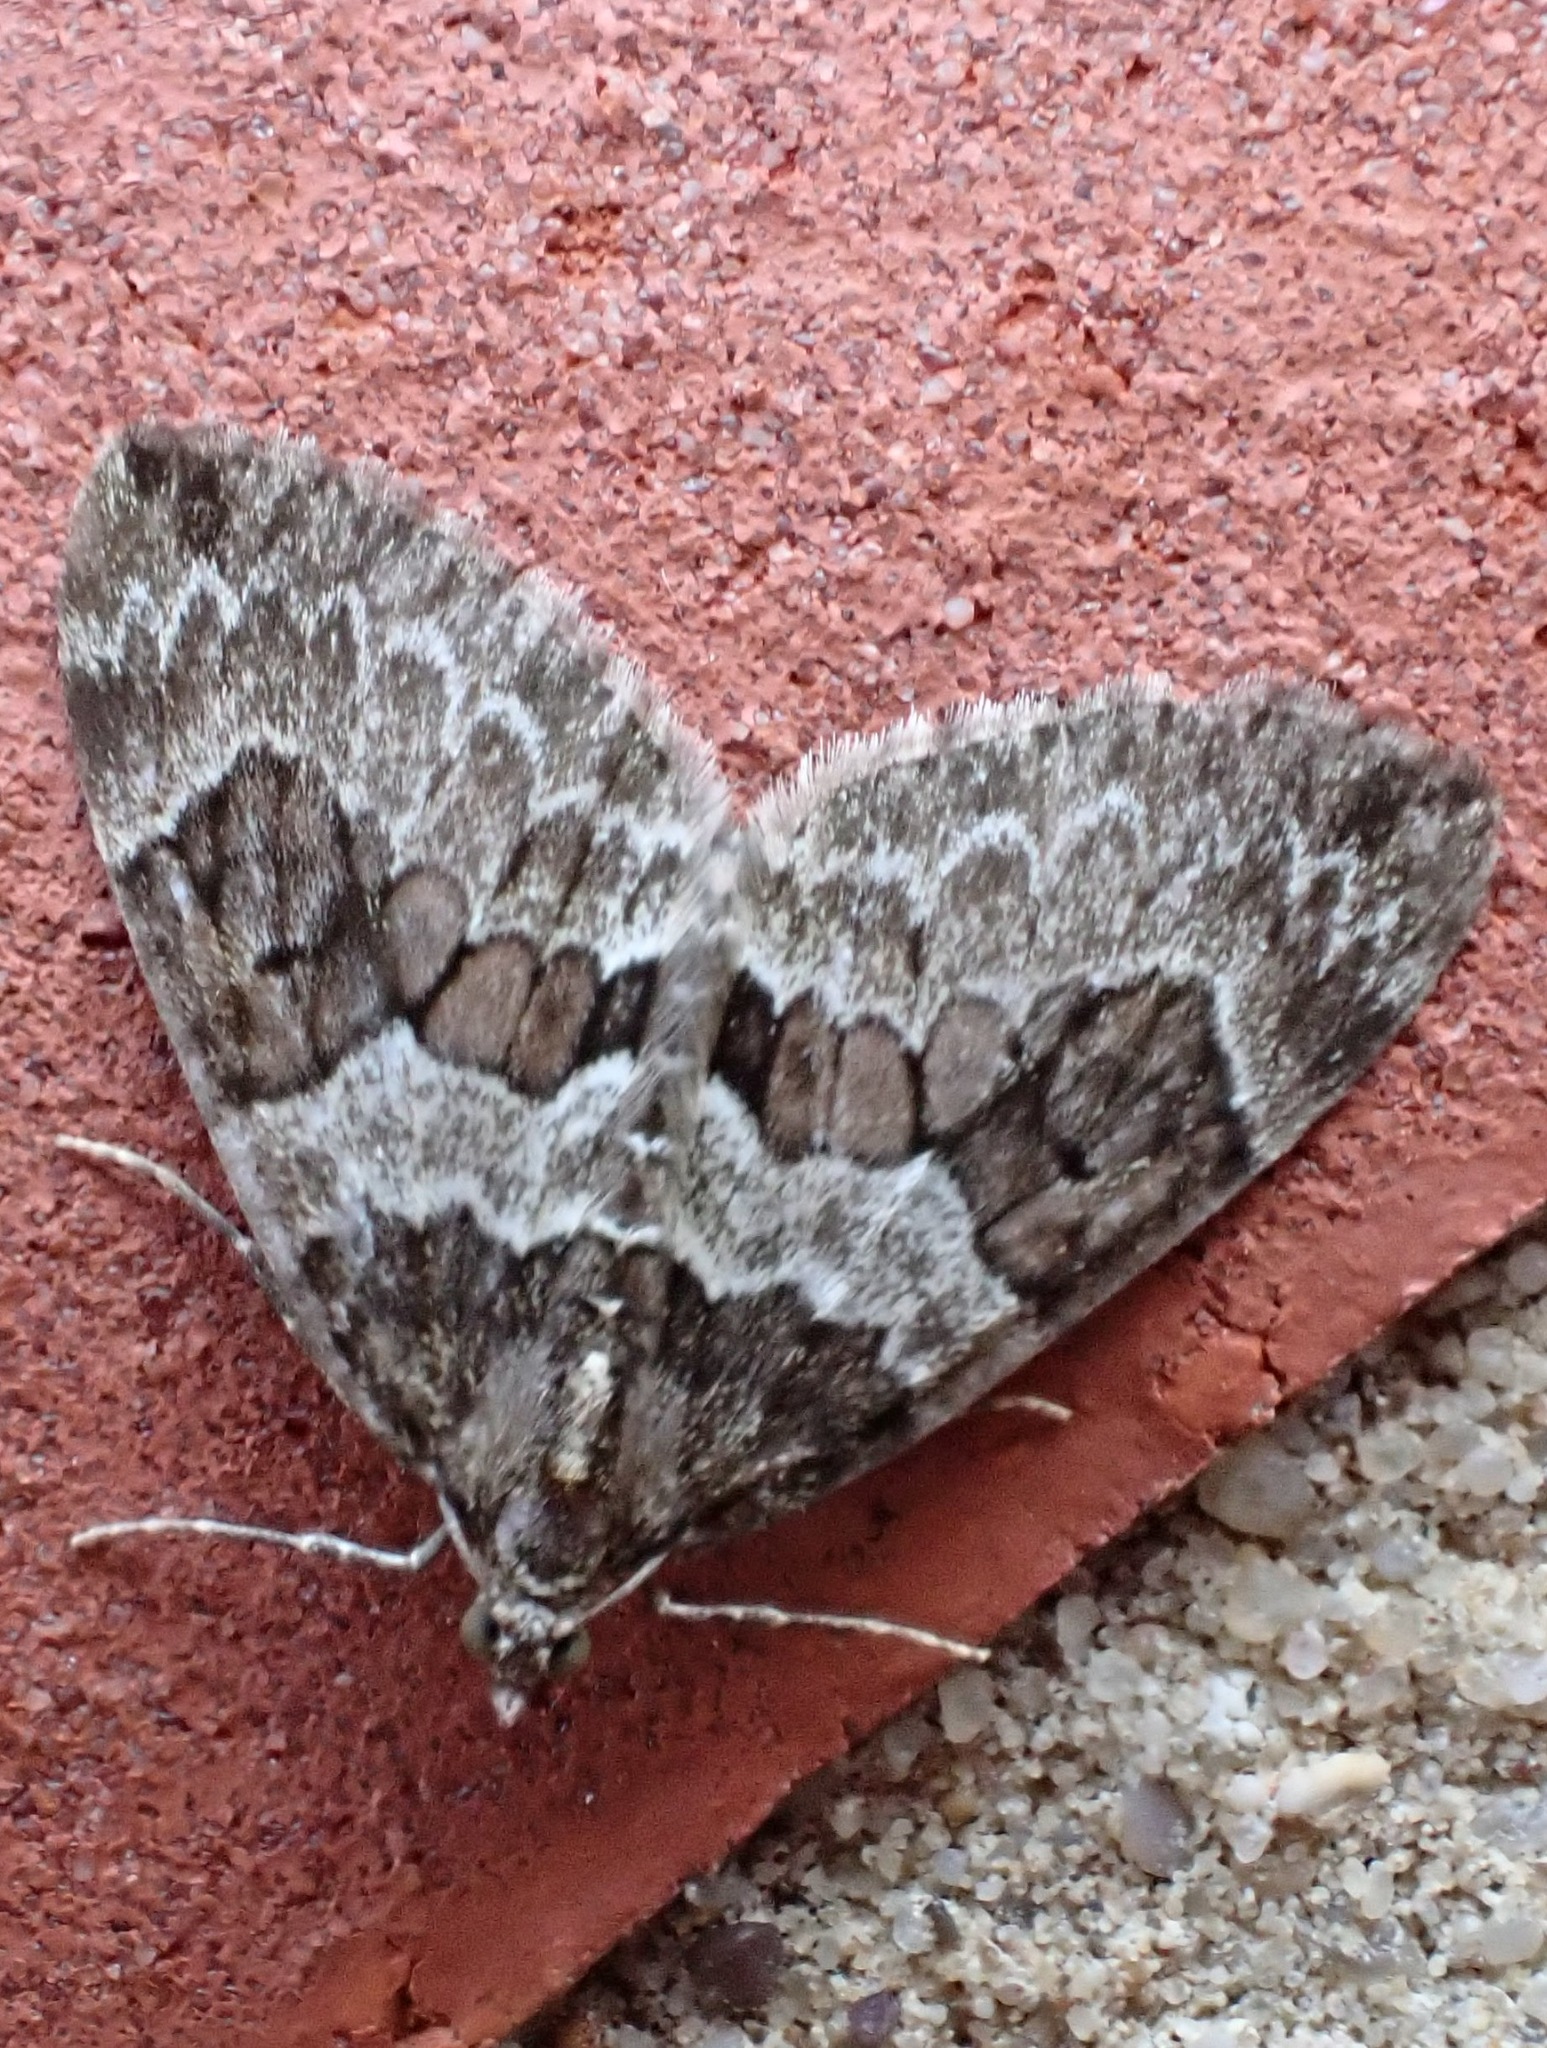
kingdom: Animalia
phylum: Arthropoda
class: Insecta
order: Lepidoptera
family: Geometridae
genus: Thera
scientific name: Thera britannica
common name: Spruce carpet
